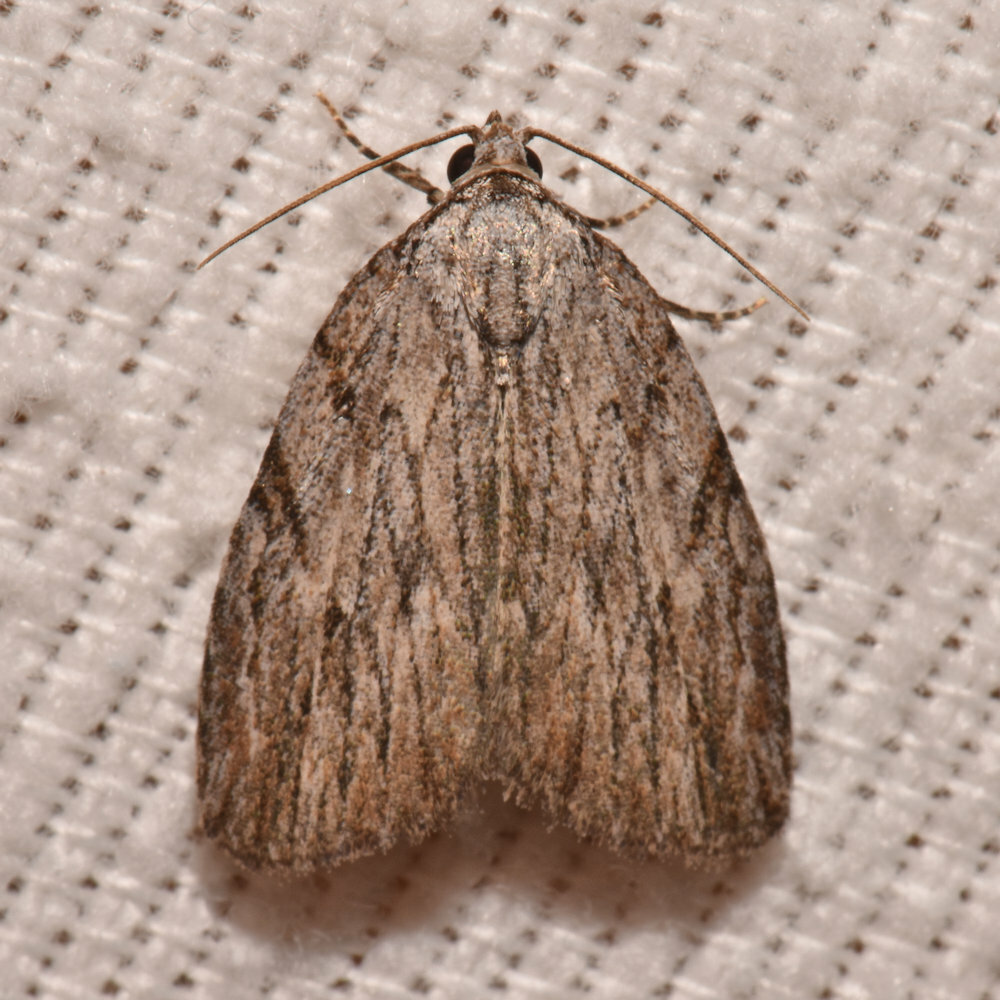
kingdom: Animalia
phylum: Arthropoda
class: Insecta
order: Lepidoptera
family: Noctuidae
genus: Balsa
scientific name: Balsa tristrigella
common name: Three-lined balsa moth
